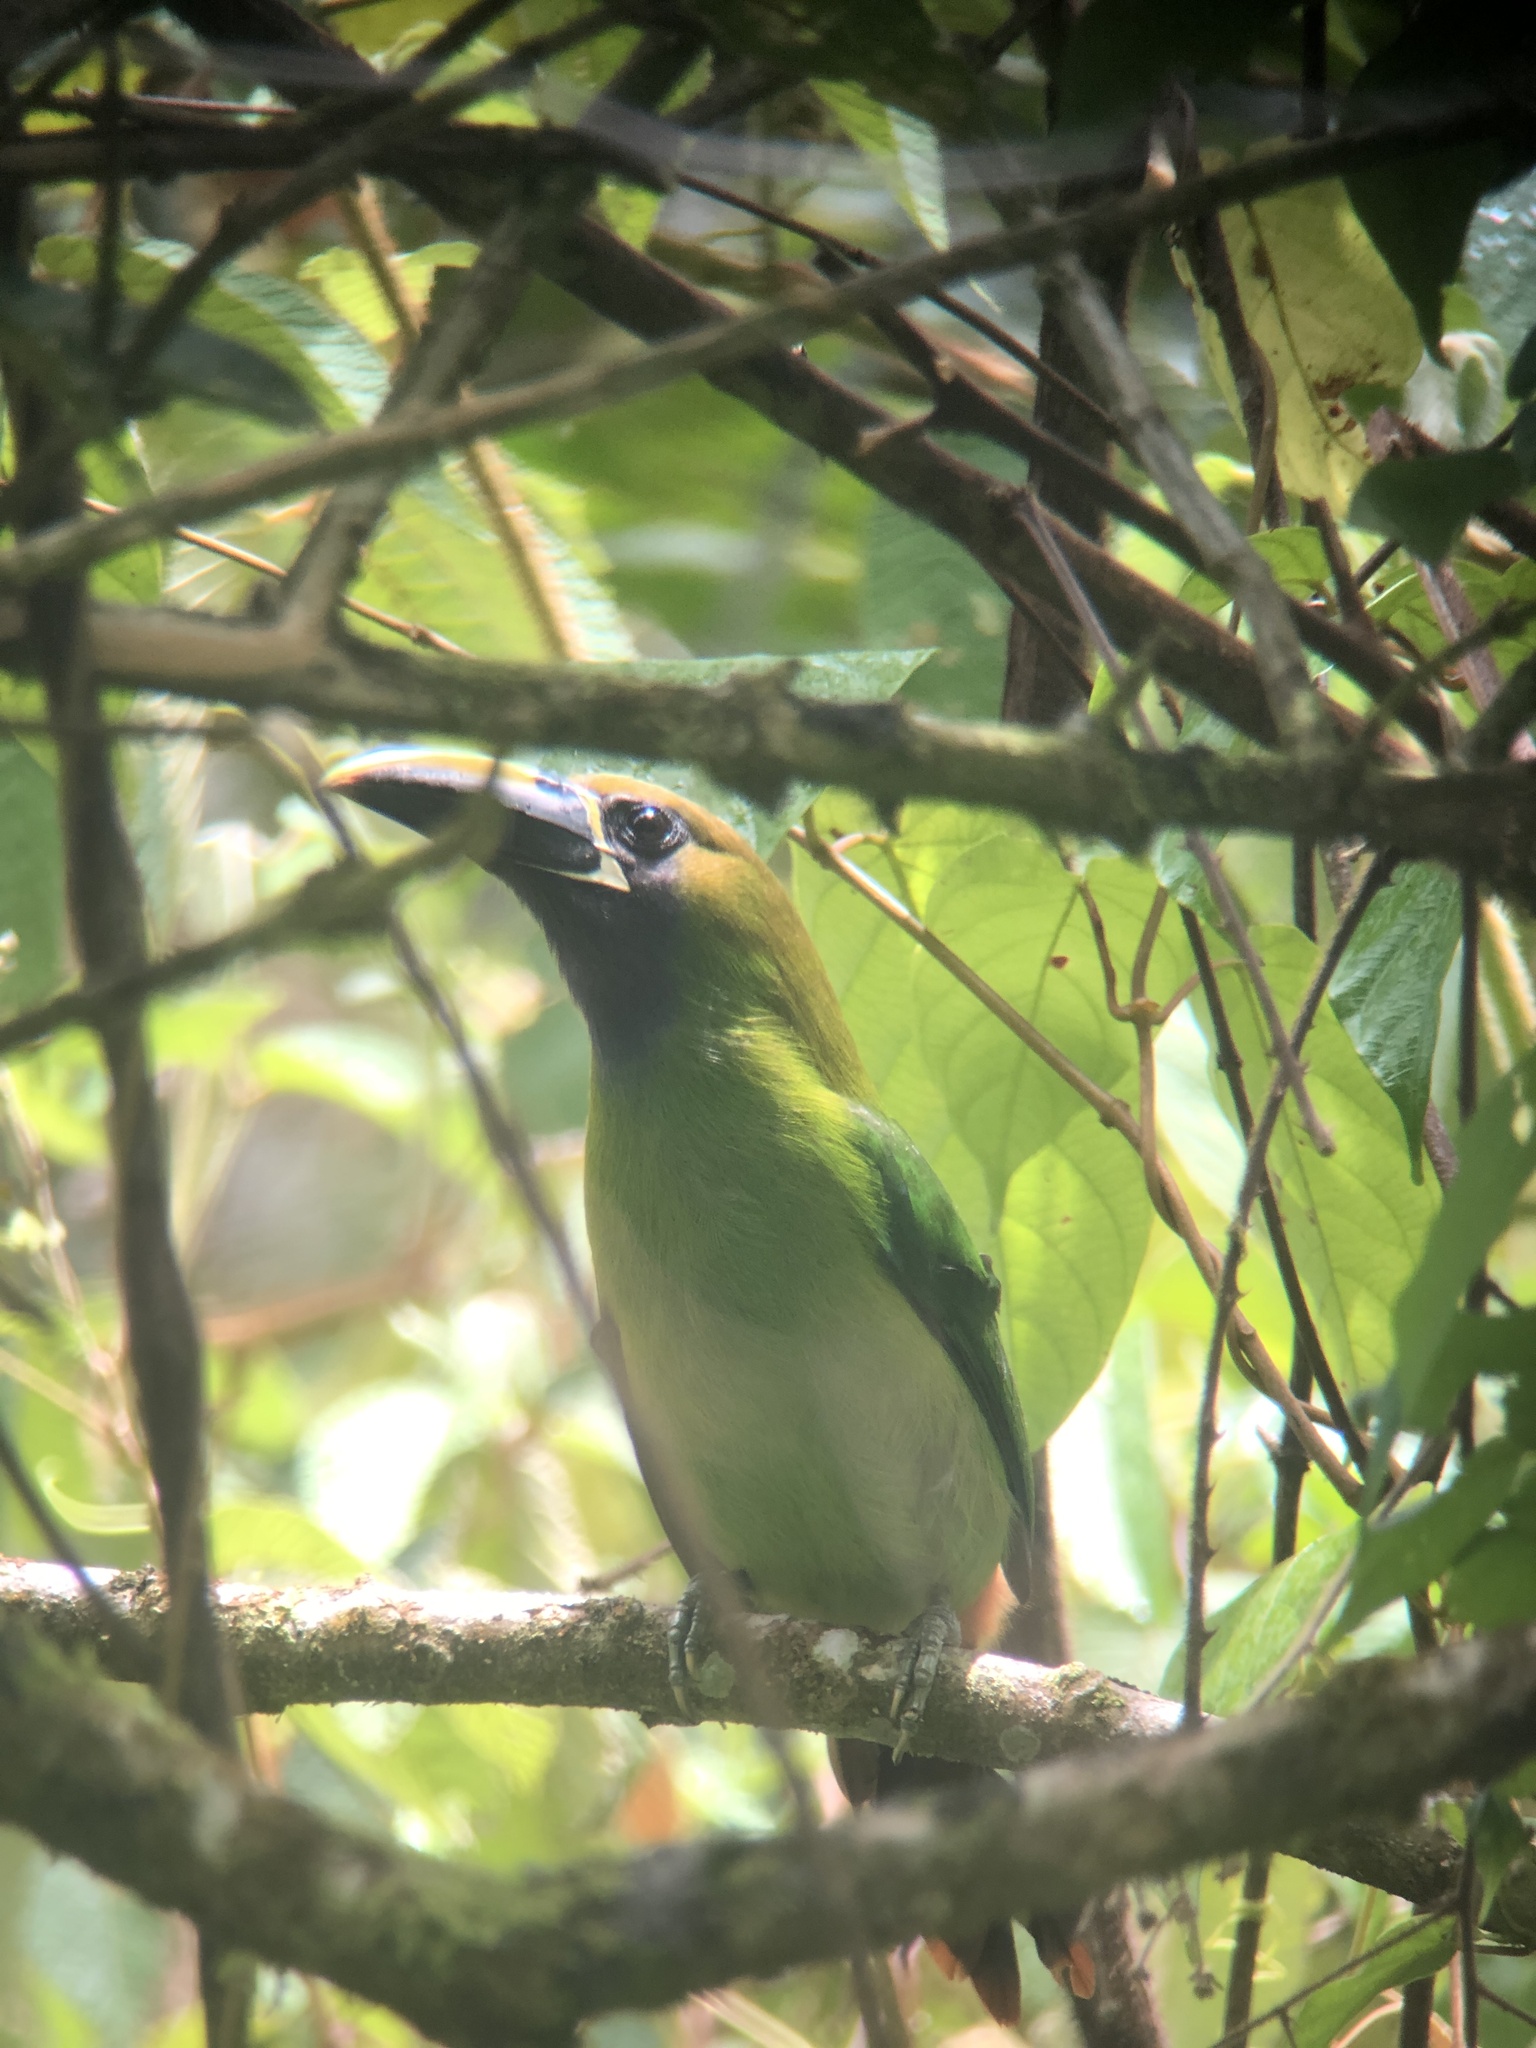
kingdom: Animalia
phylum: Chordata
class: Aves
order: Piciformes
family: Ramphastidae
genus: Aulacorhynchus
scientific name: Aulacorhynchus prasinus
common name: Emerald toucanet
